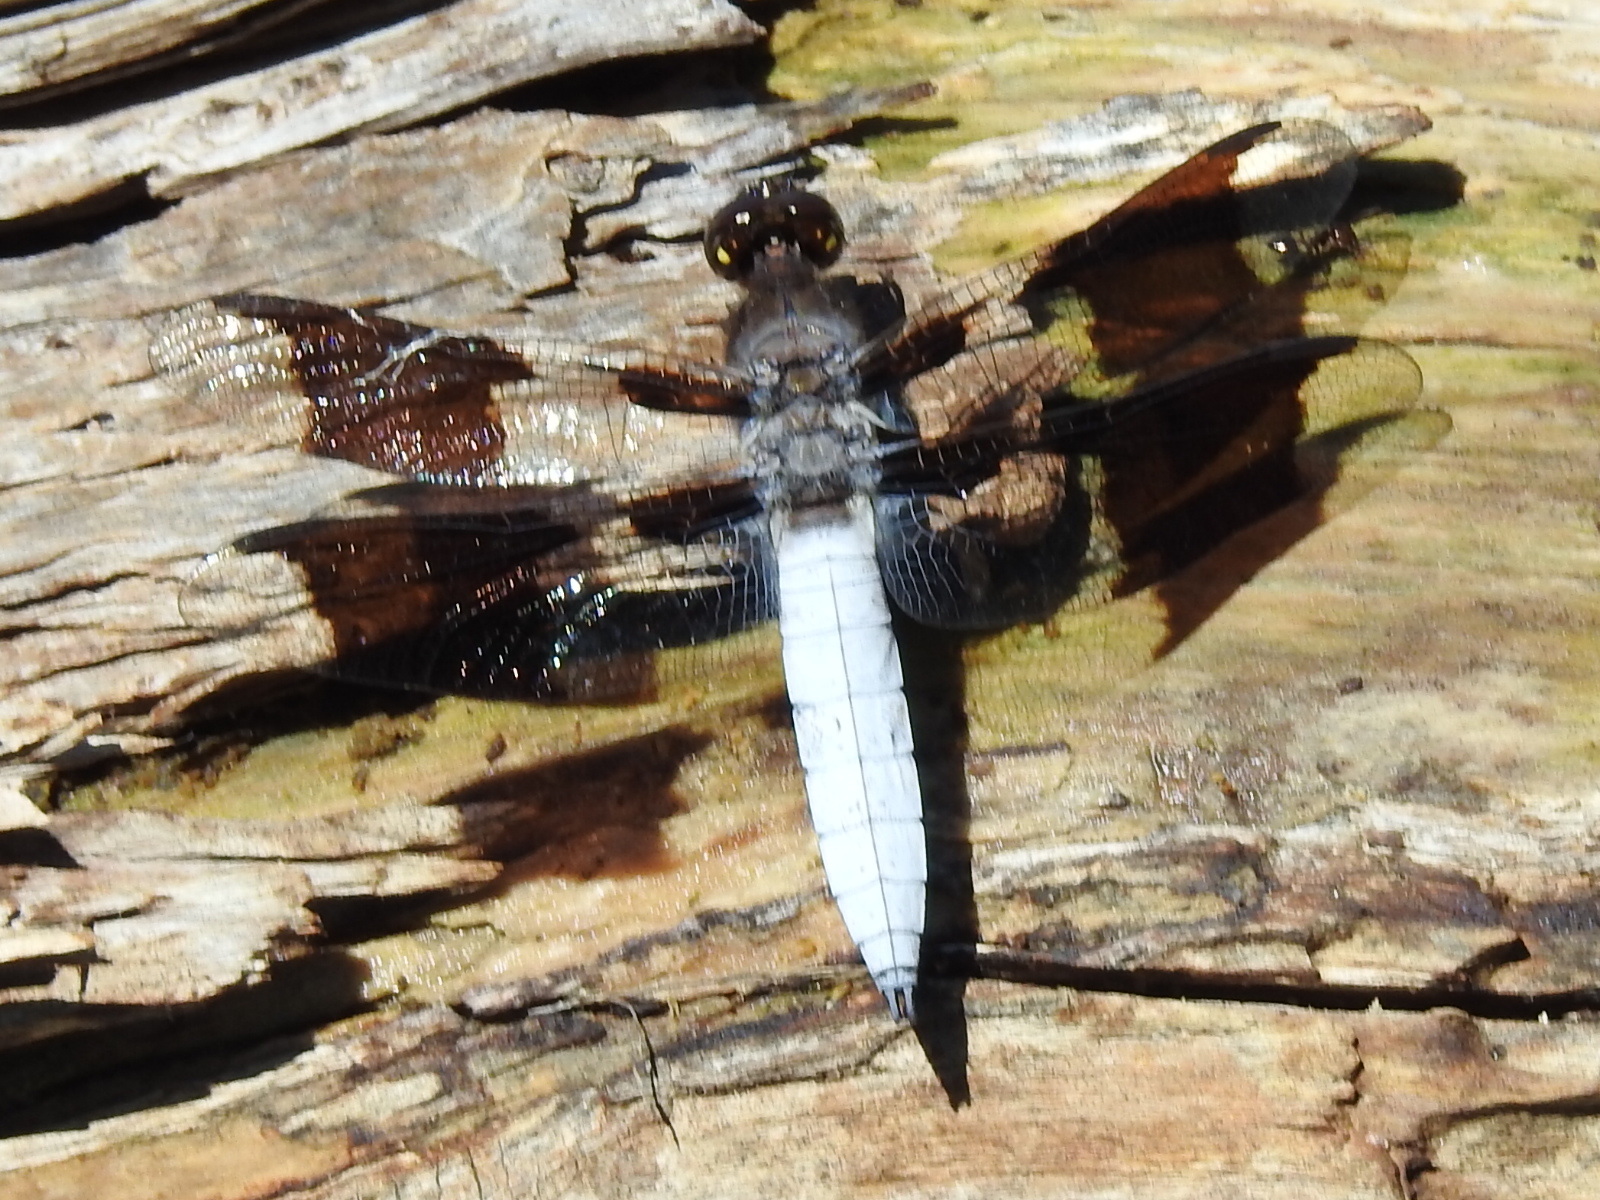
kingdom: Animalia
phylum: Arthropoda
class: Insecta
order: Odonata
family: Libellulidae
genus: Plathemis
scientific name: Plathemis lydia
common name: Common whitetail
